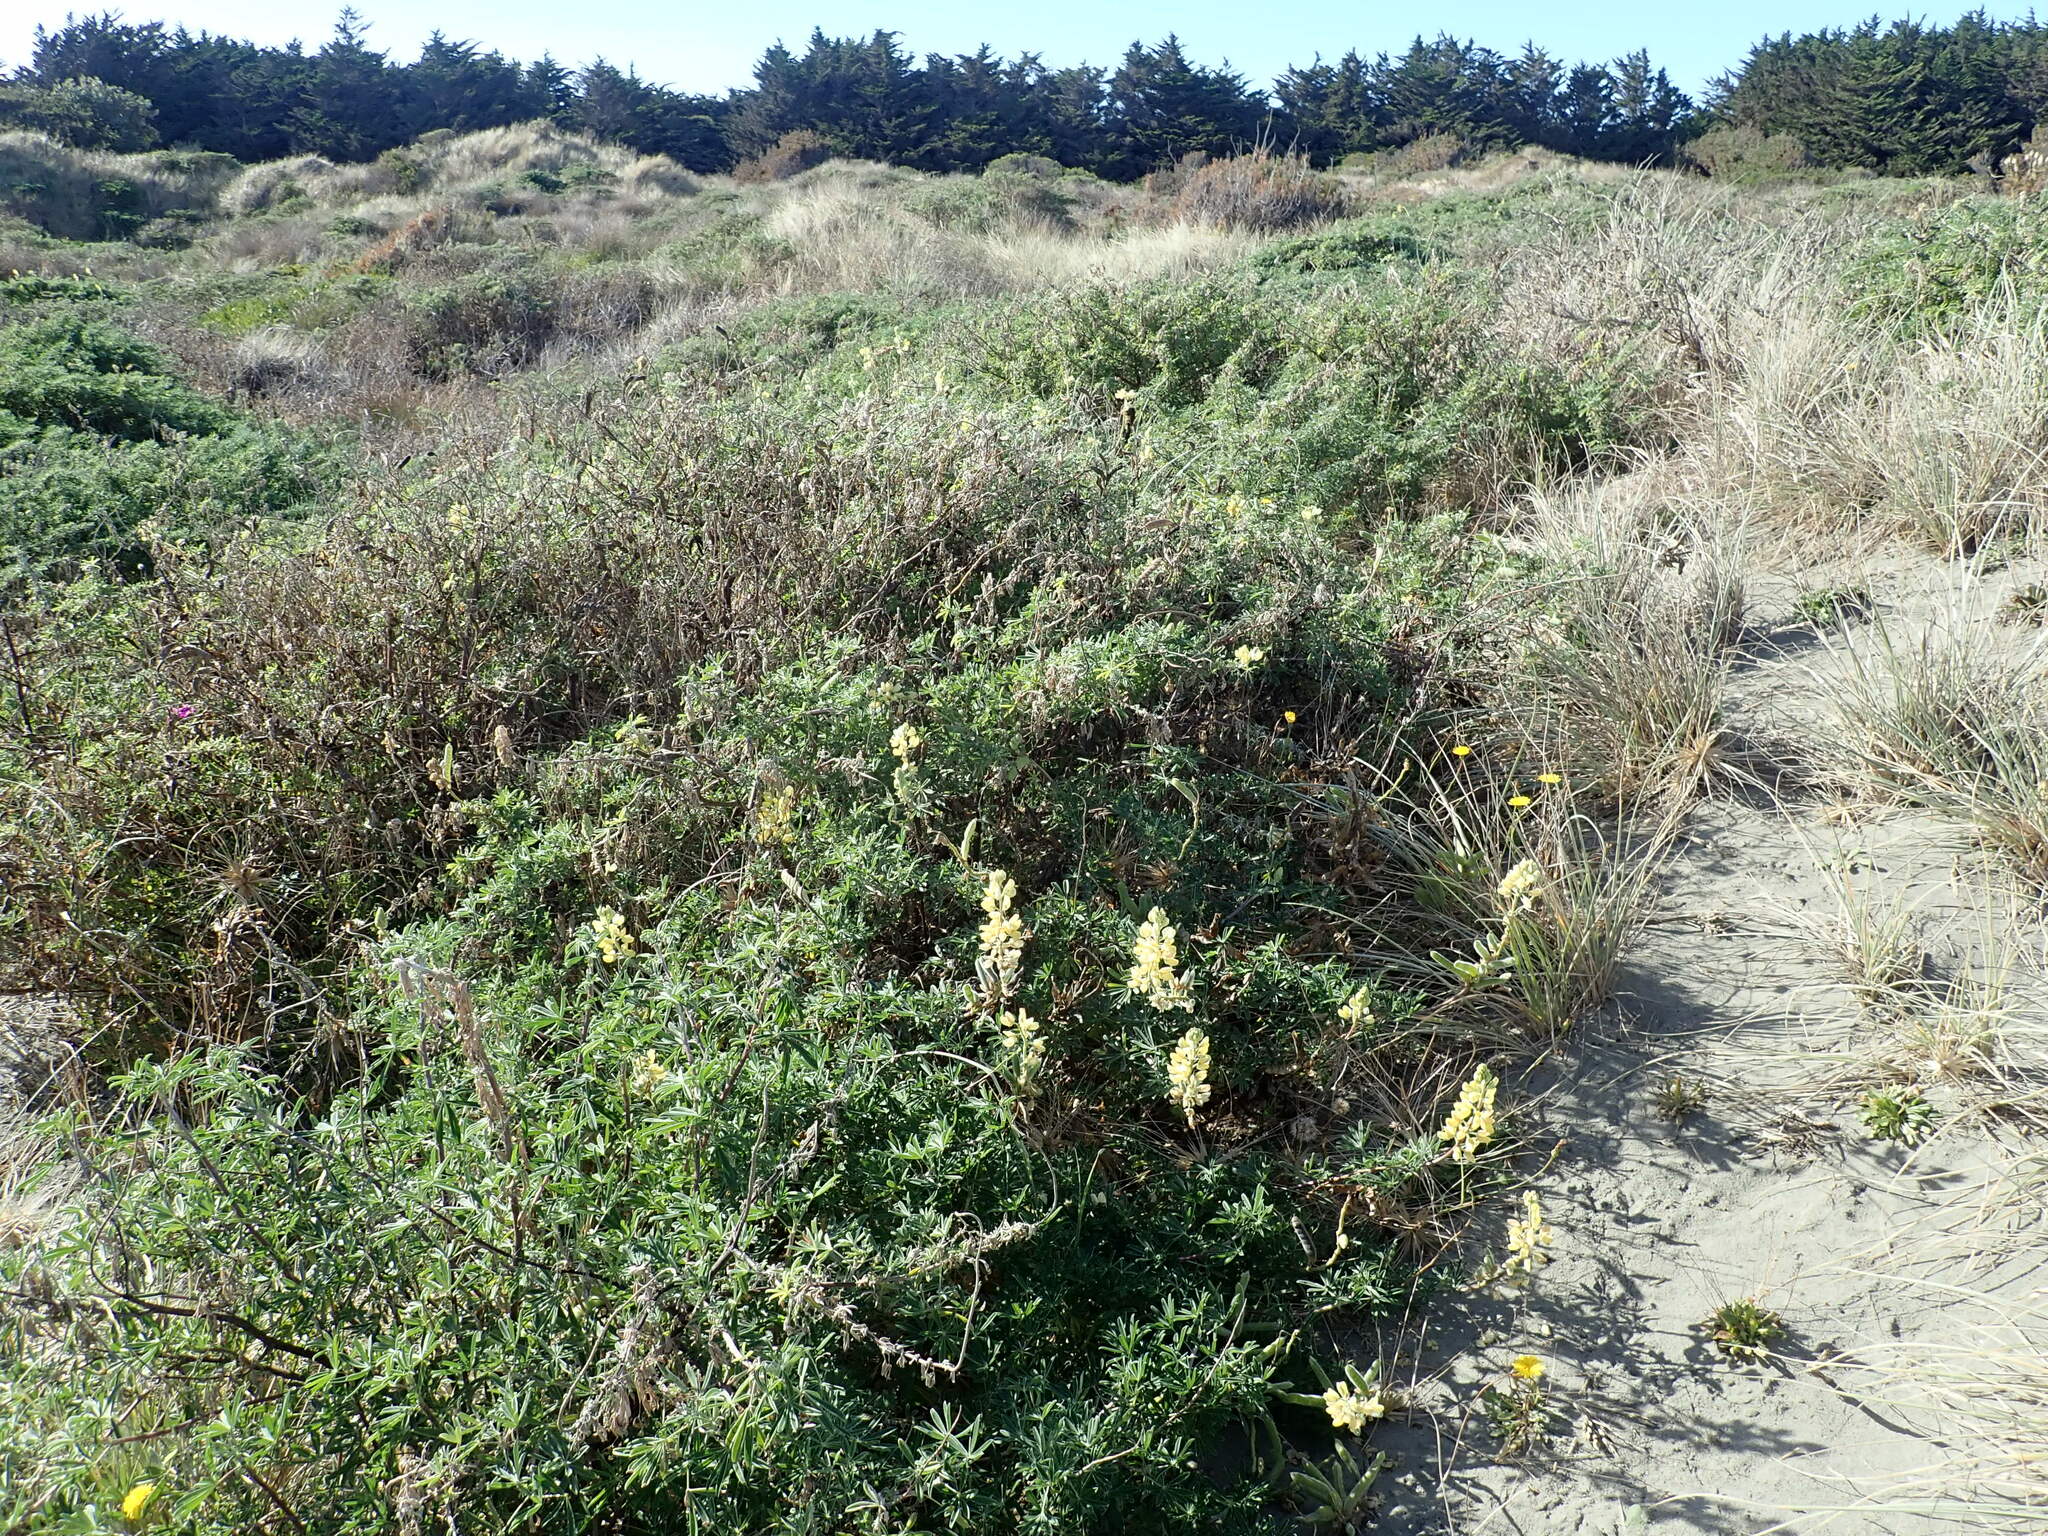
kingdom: Plantae
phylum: Tracheophyta
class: Magnoliopsida
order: Fabales
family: Fabaceae
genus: Lupinus
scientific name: Lupinus arboreus
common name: Yellow bush lupine
